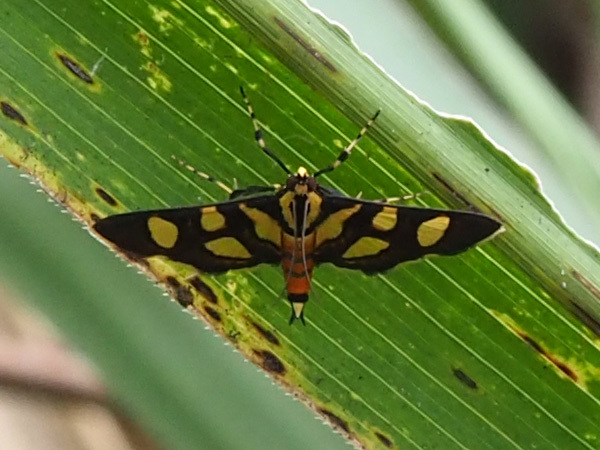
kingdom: Animalia
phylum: Arthropoda
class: Insecta
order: Lepidoptera
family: Crambidae
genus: Syngamia
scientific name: Syngamia florella
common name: Orange-spotted flower moth
